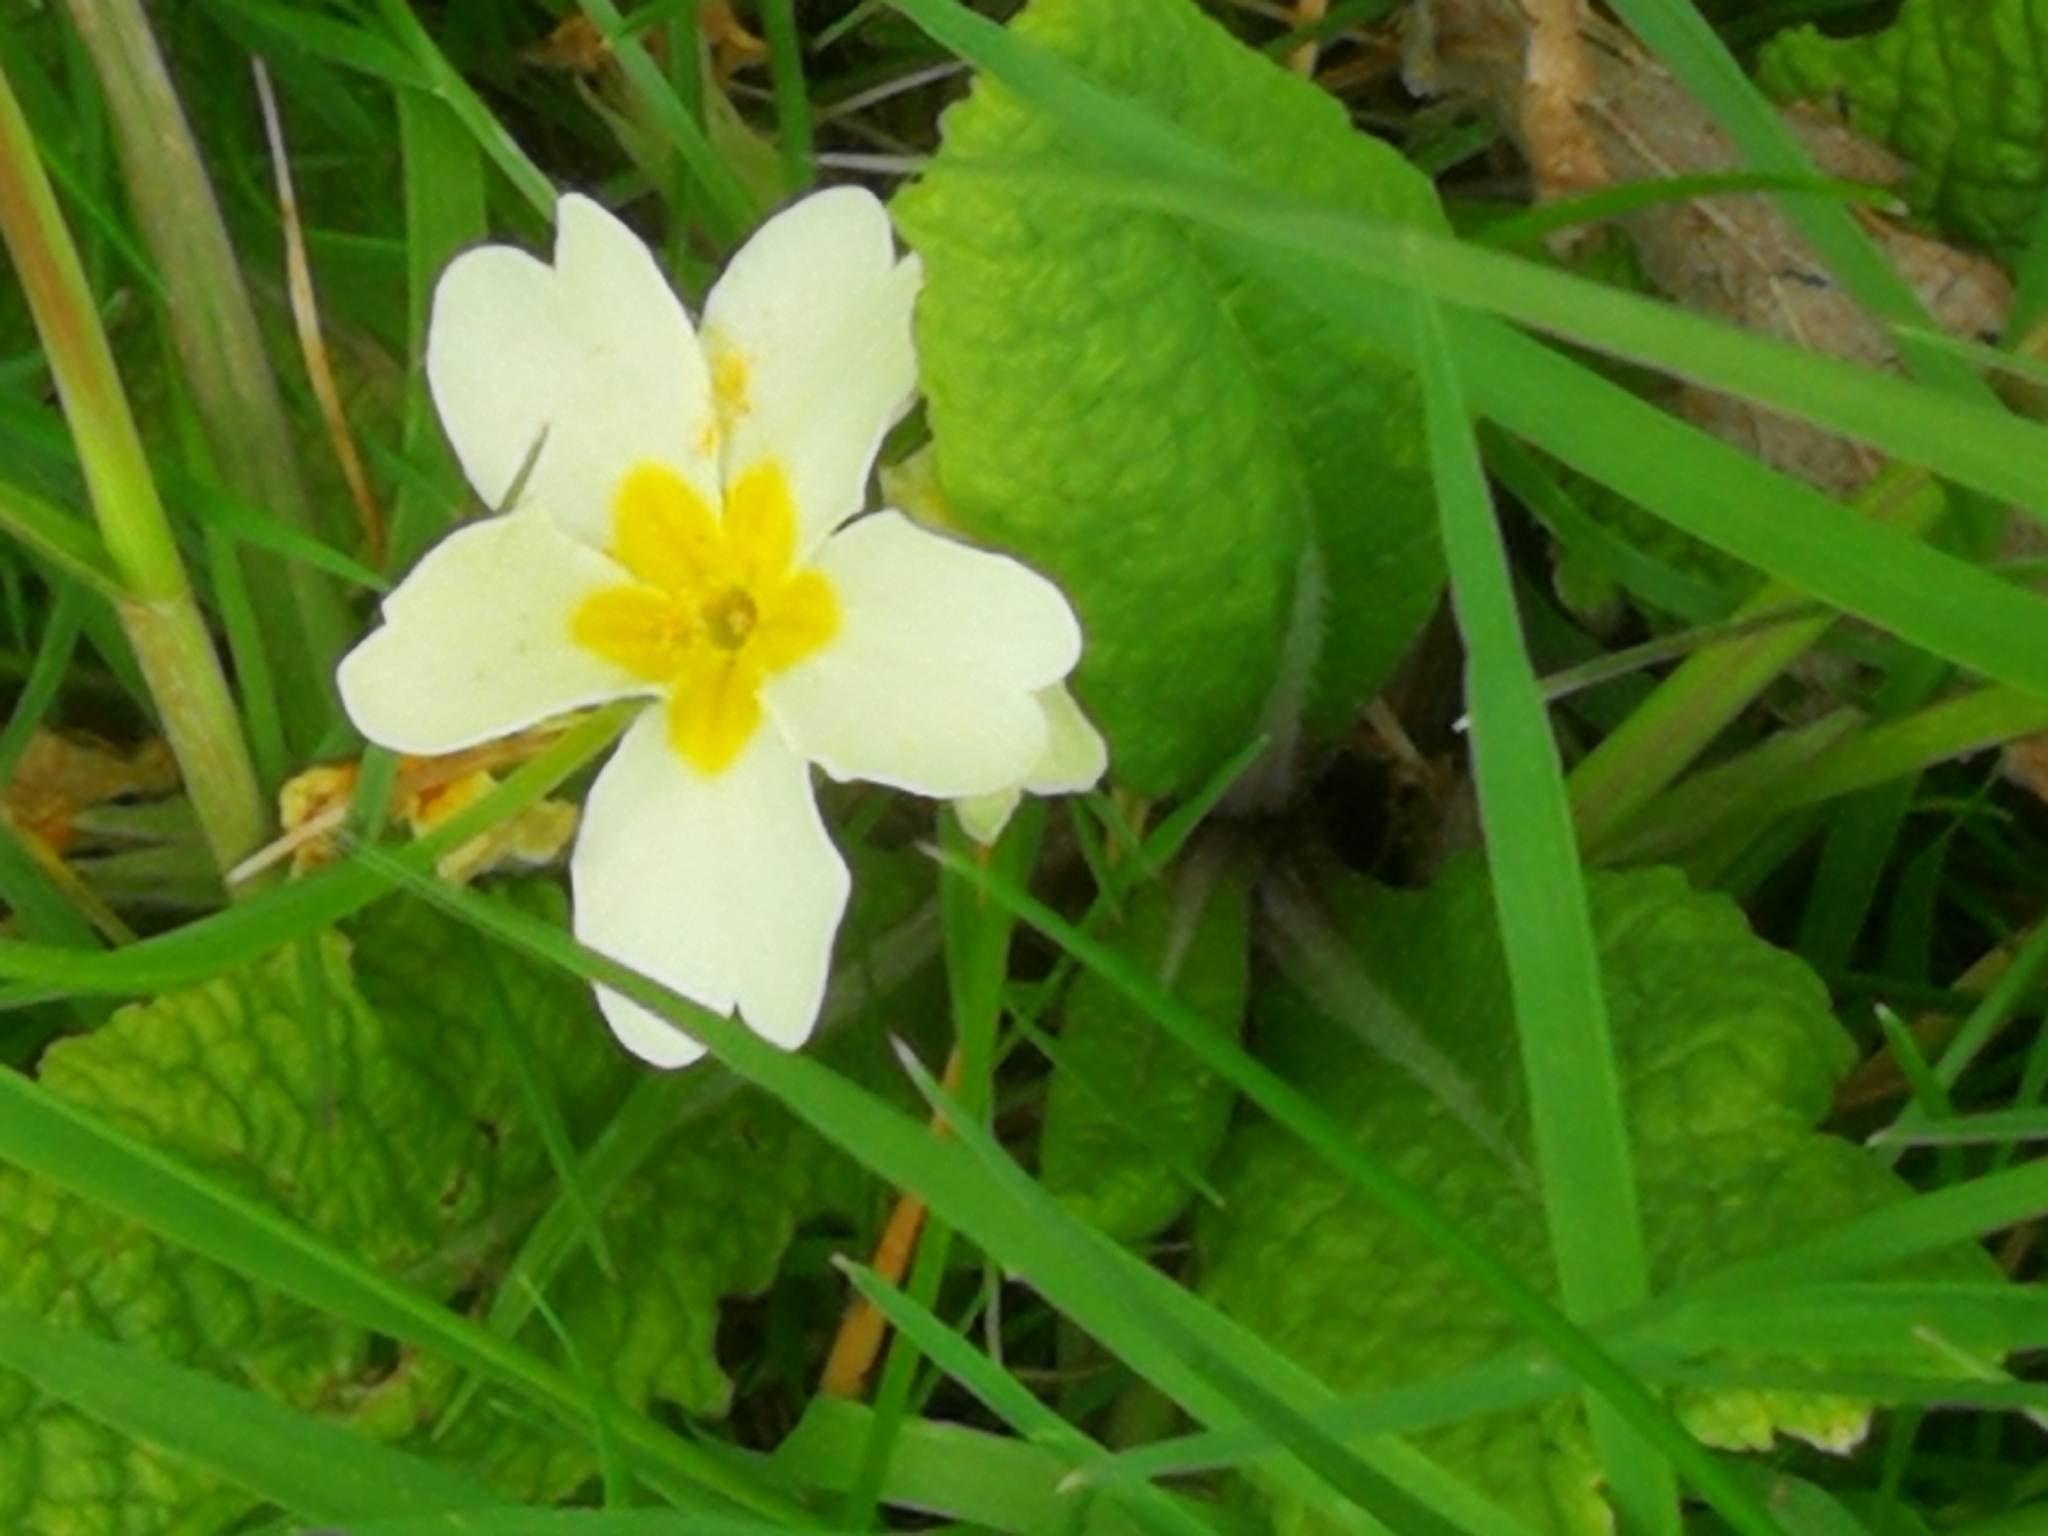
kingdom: Plantae
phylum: Tracheophyta
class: Magnoliopsida
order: Ericales
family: Primulaceae
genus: Primula
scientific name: Primula vulgaris
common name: Primrose
